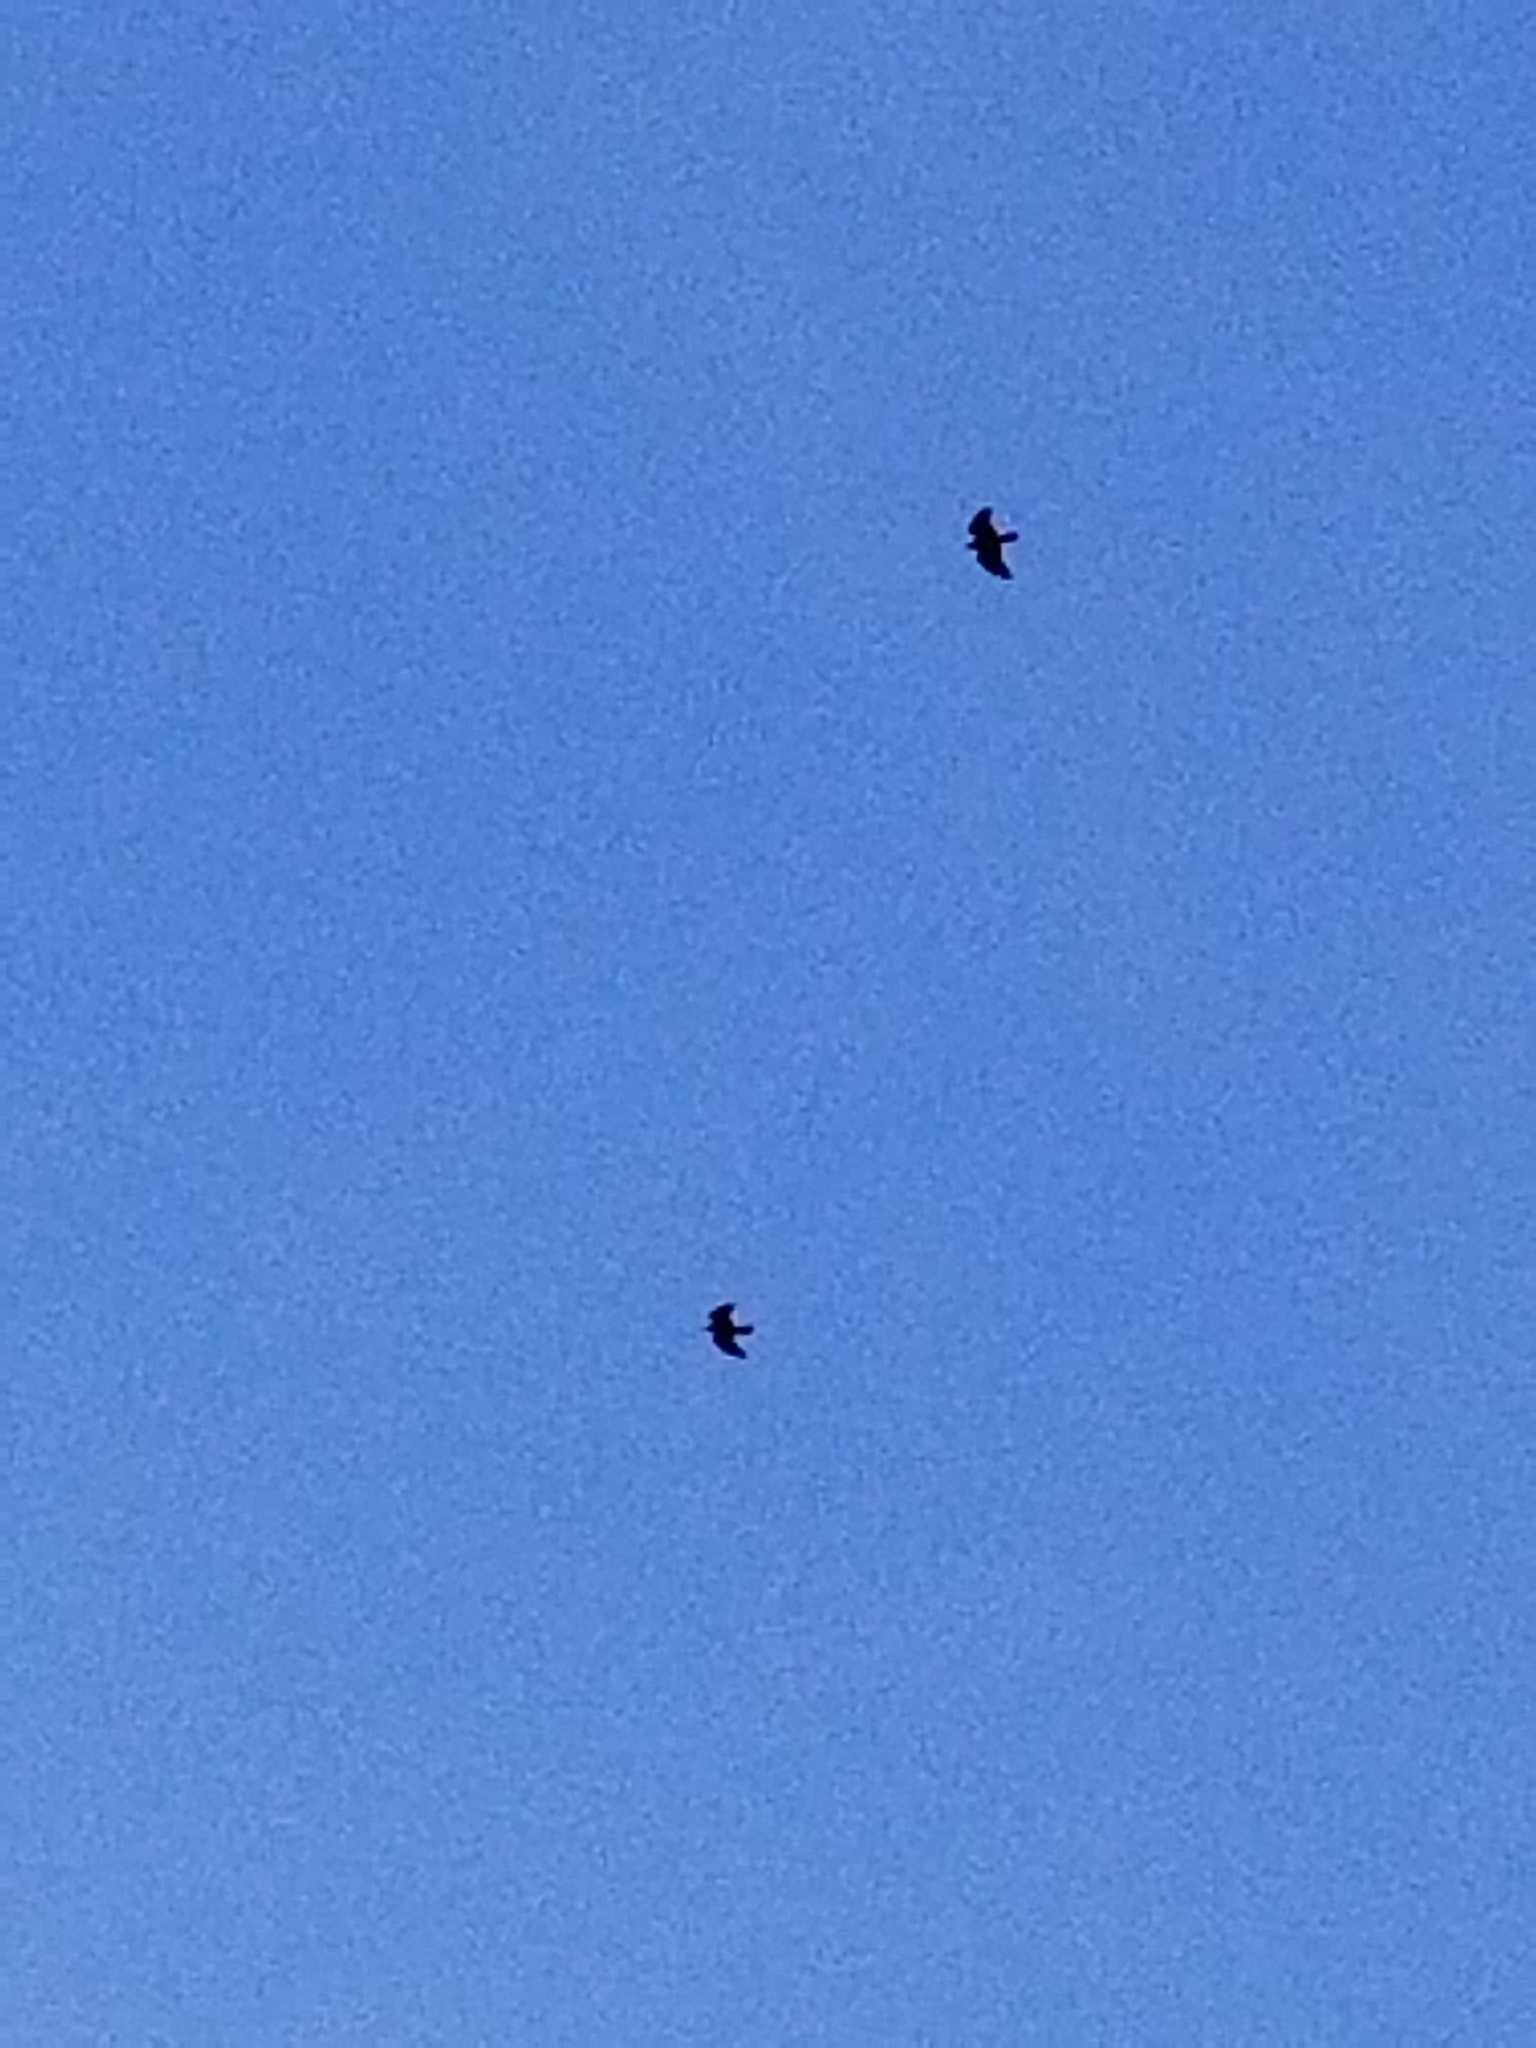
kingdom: Animalia
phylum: Chordata
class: Aves
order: Passeriformes
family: Corvidae
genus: Corvus
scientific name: Corvus corax
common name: Common raven
